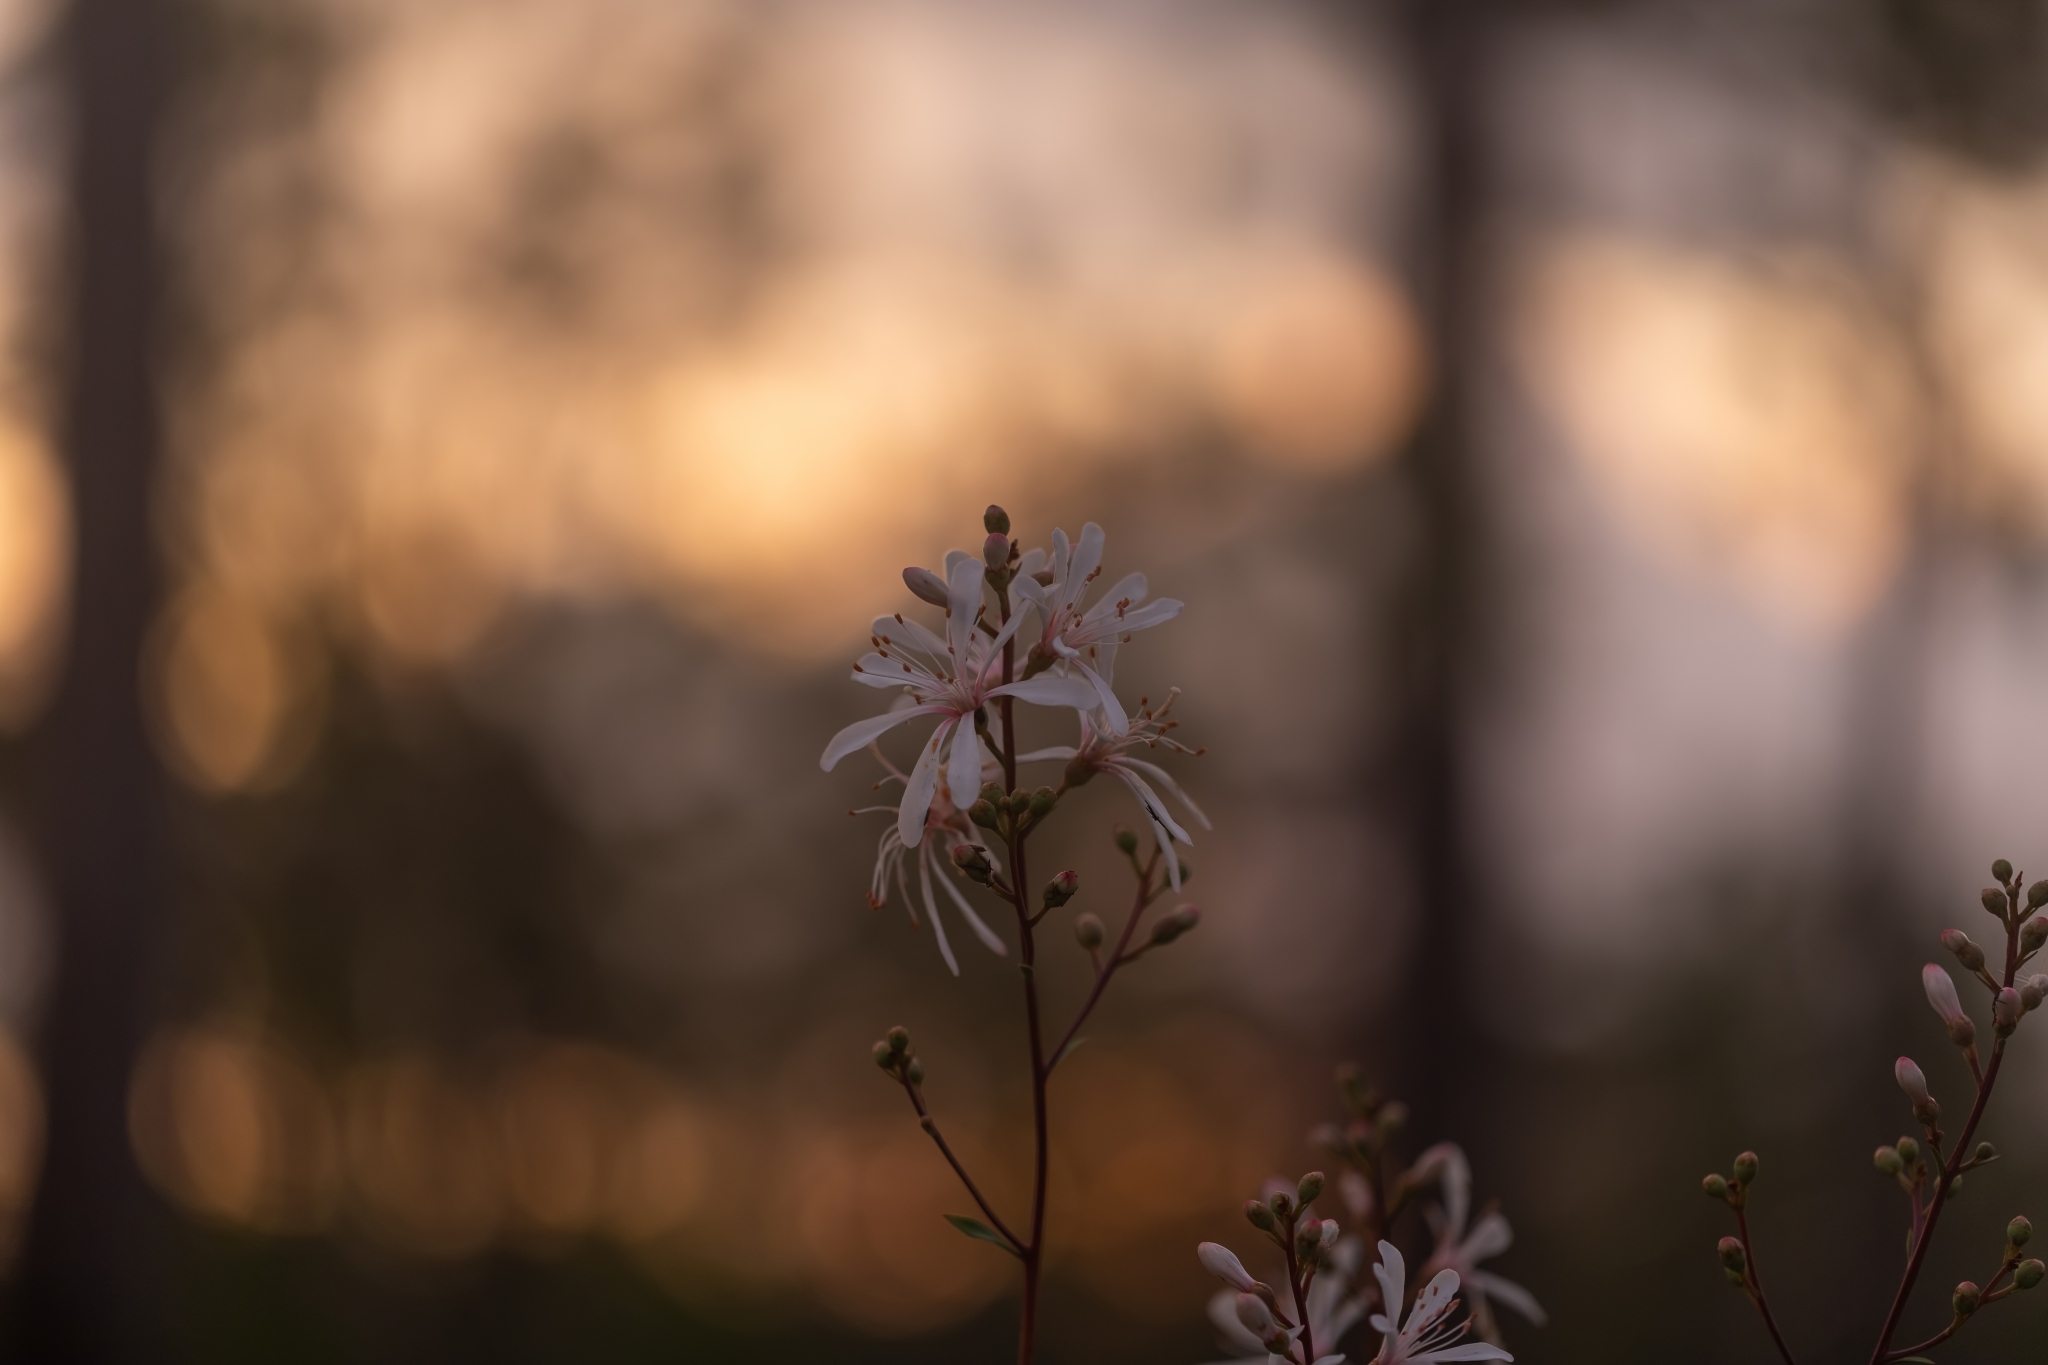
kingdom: Plantae
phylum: Tracheophyta
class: Magnoliopsida
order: Ericales
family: Ericaceae
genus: Bejaria
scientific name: Bejaria racemosa
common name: Tarflower
